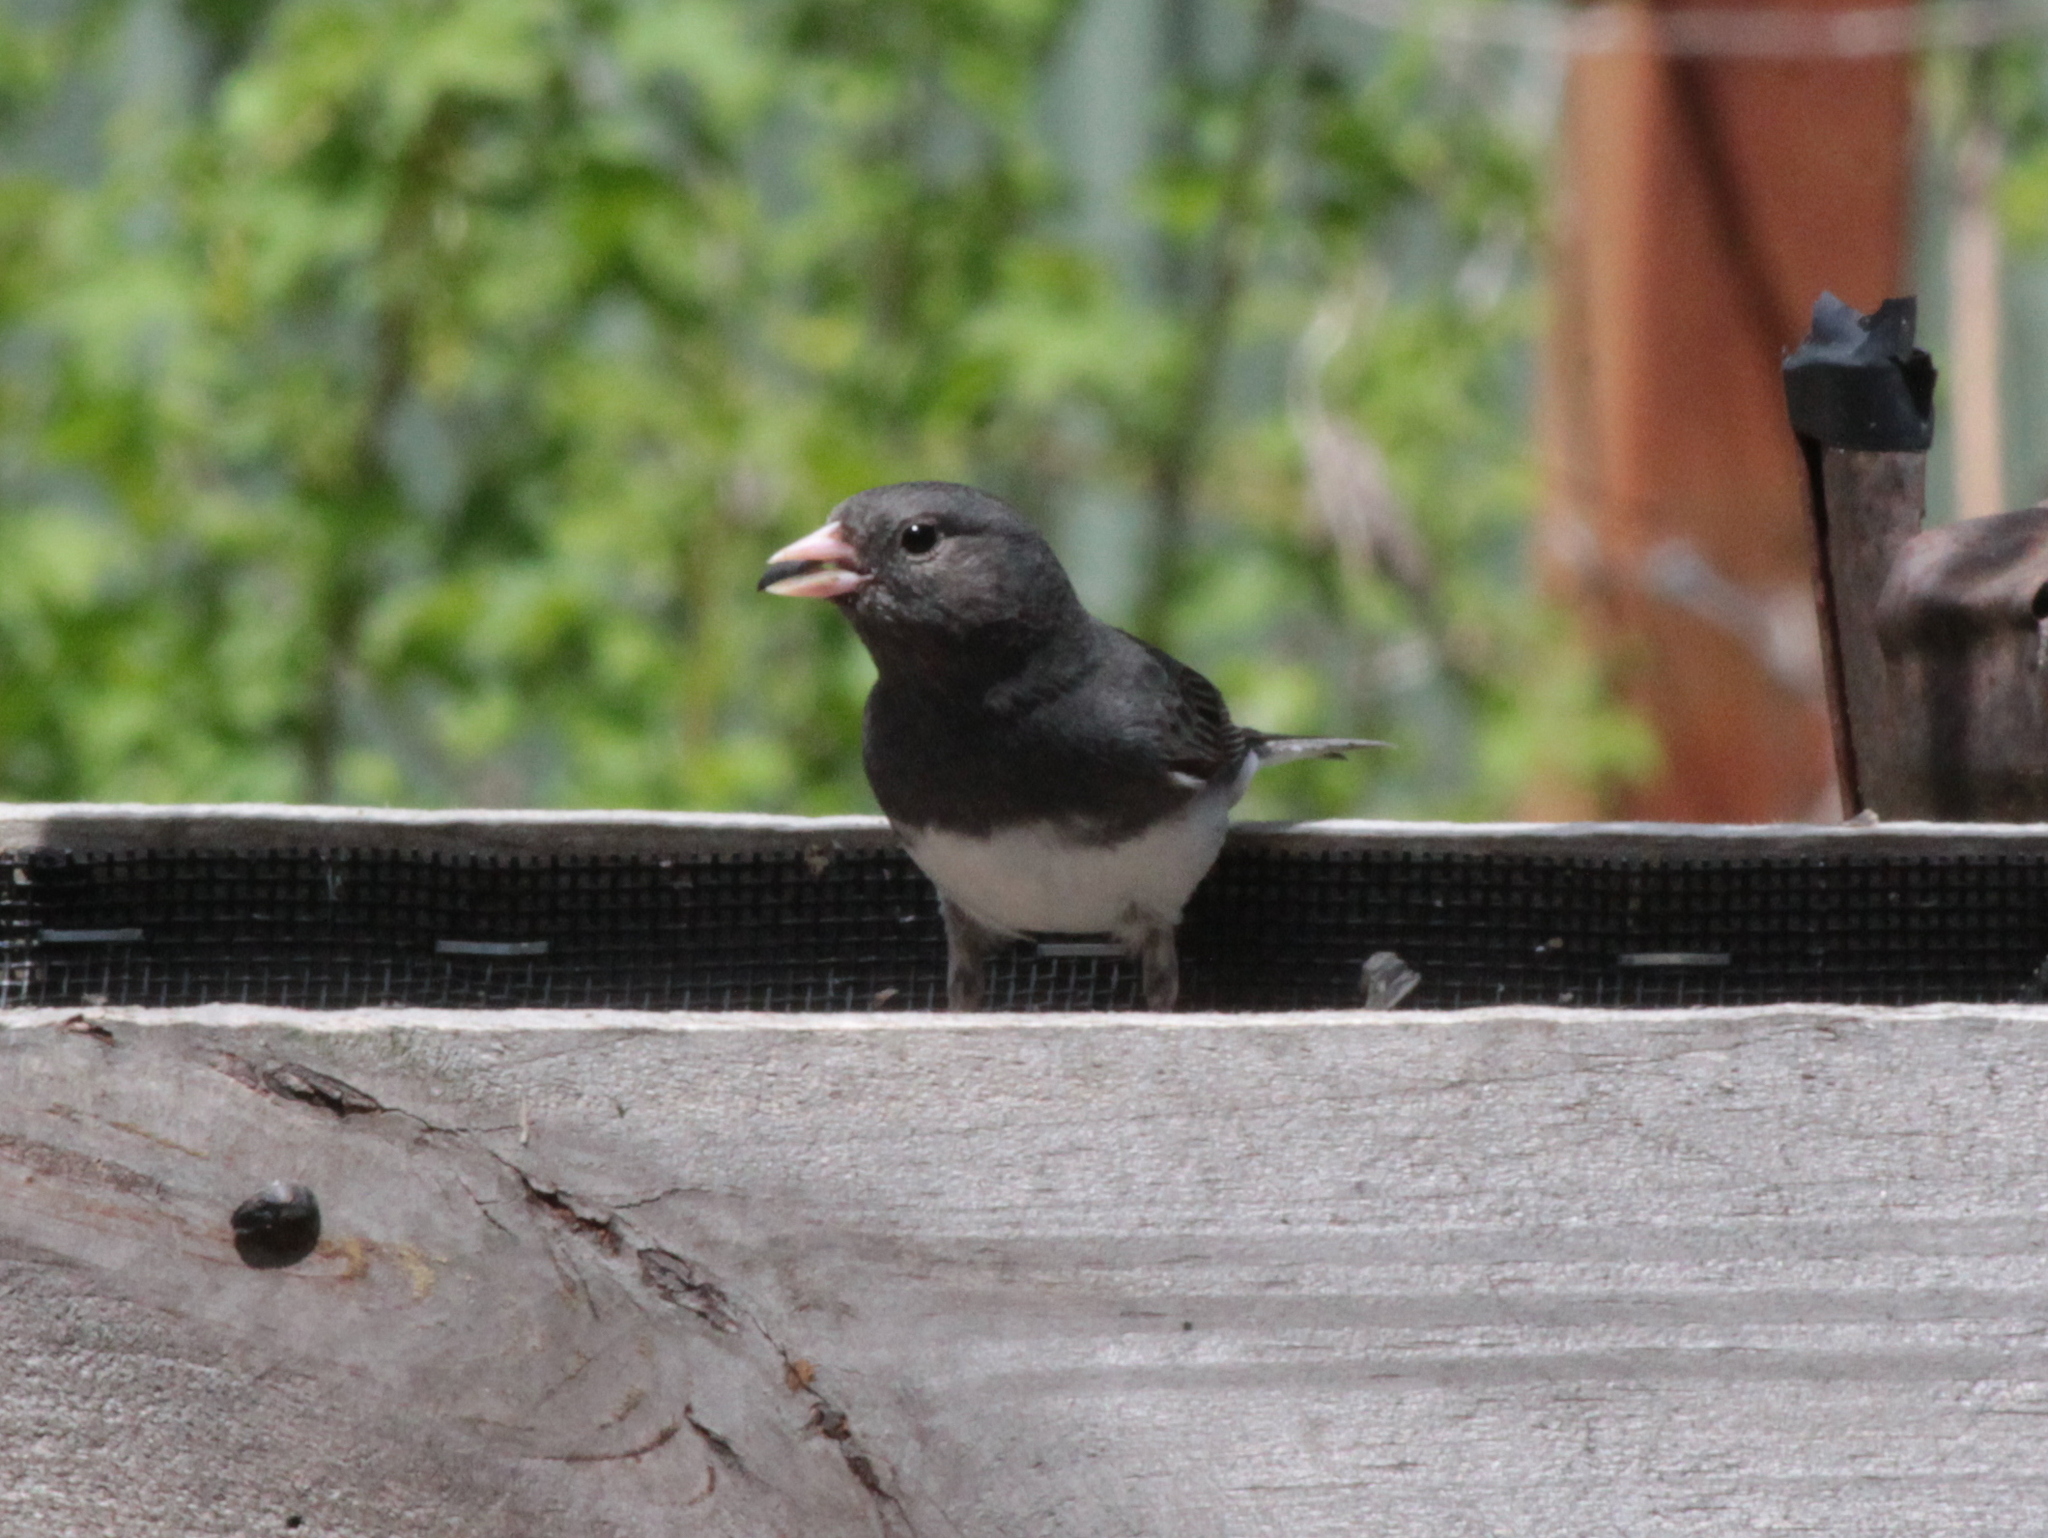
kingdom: Animalia
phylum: Chordata
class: Aves
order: Passeriformes
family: Passerellidae
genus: Junco
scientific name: Junco hyemalis
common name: Dark-eyed junco
